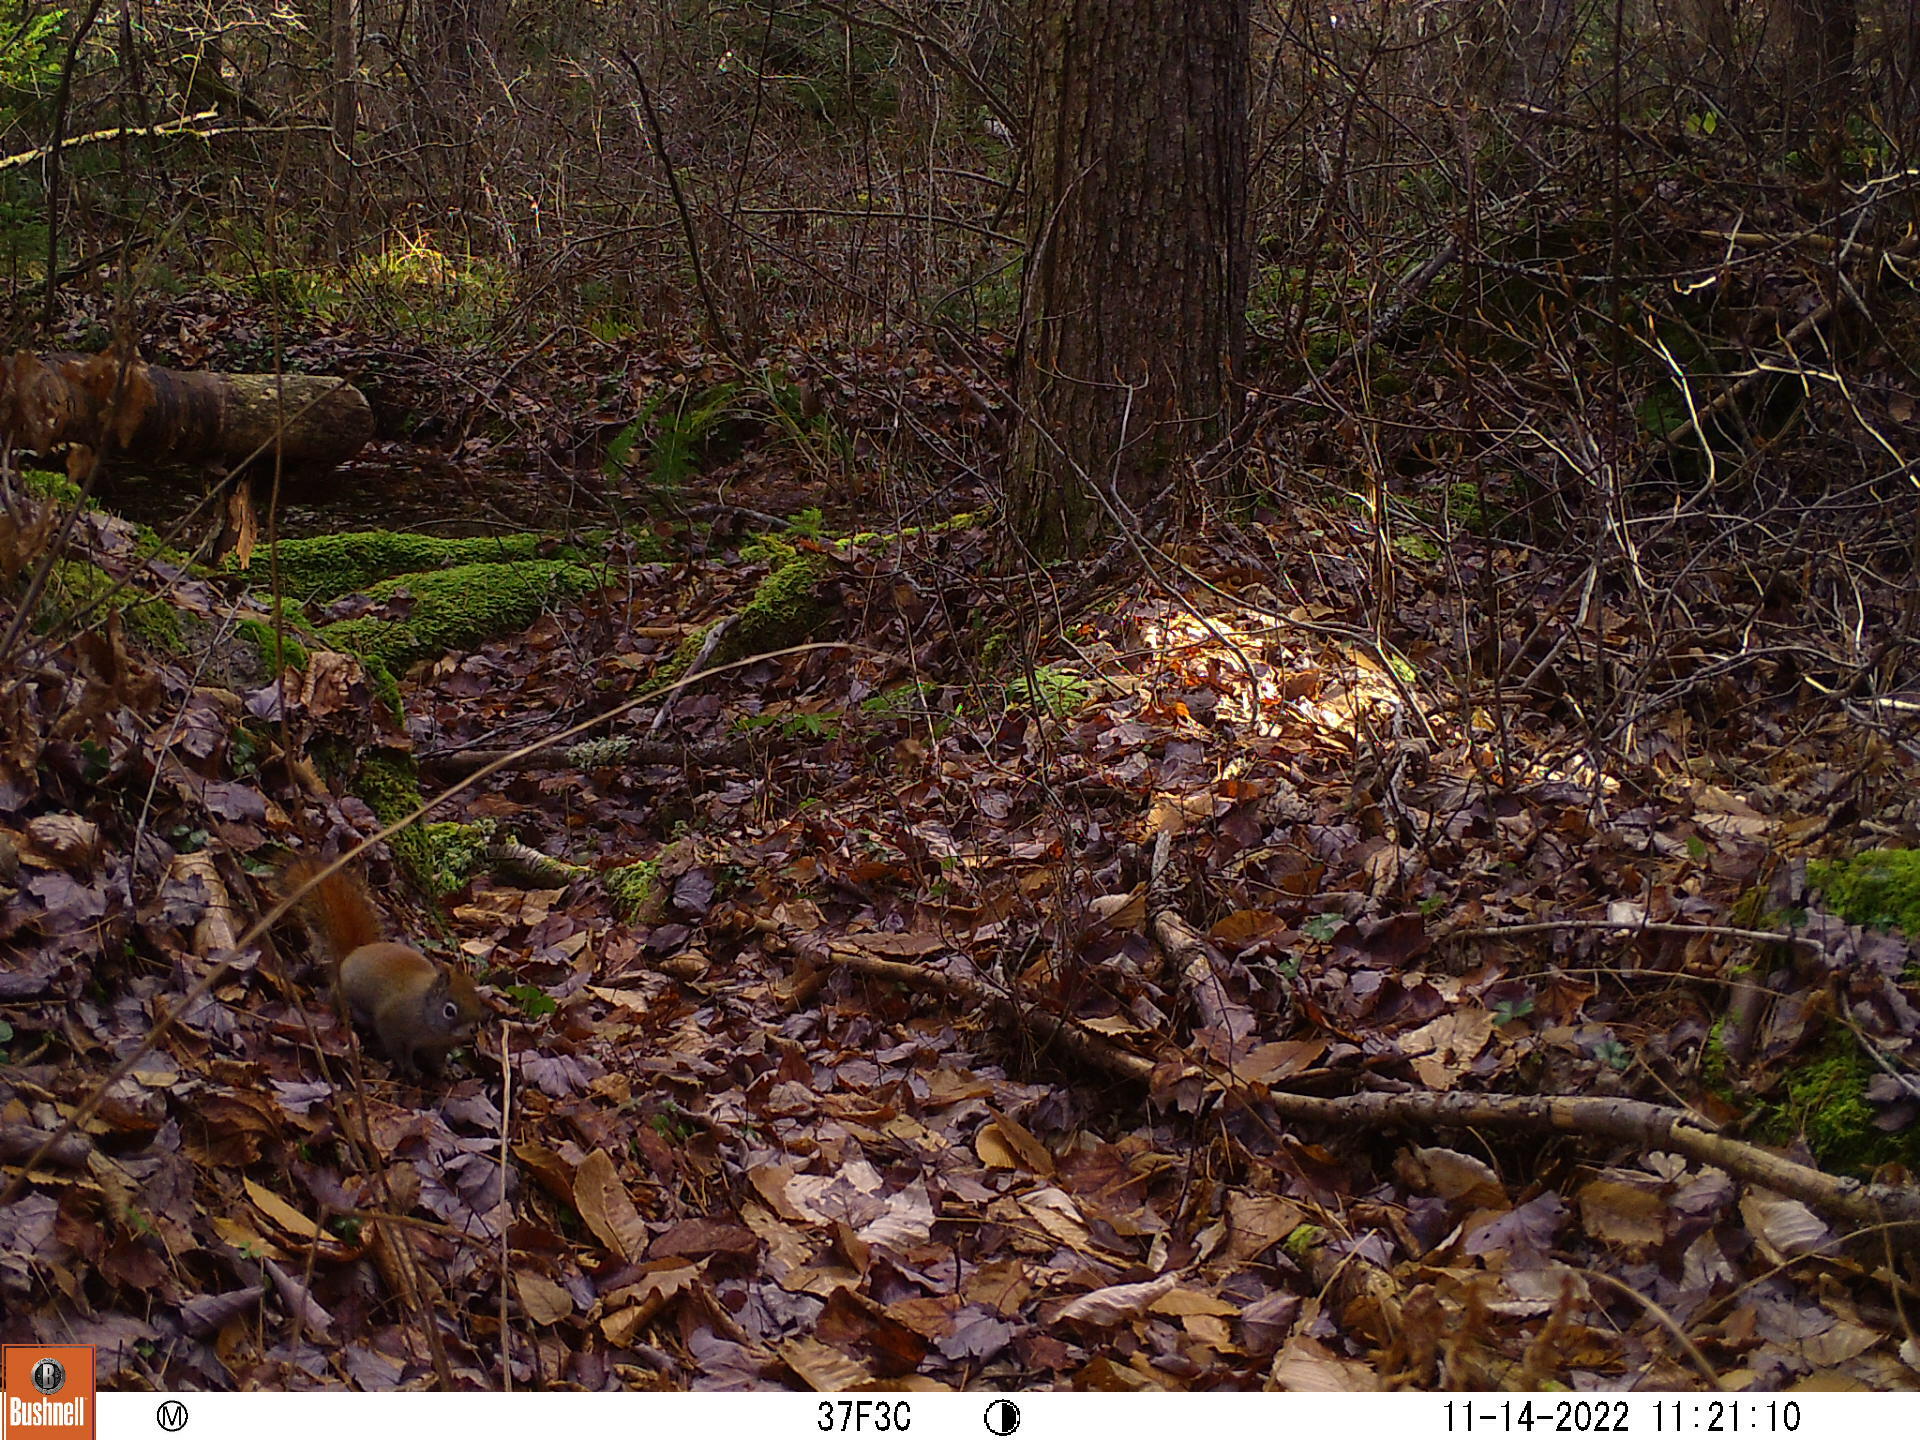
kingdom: Animalia
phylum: Chordata
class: Mammalia
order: Rodentia
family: Sciuridae
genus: Tamiasciurus
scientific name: Tamiasciurus hudsonicus
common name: Red squirrel
